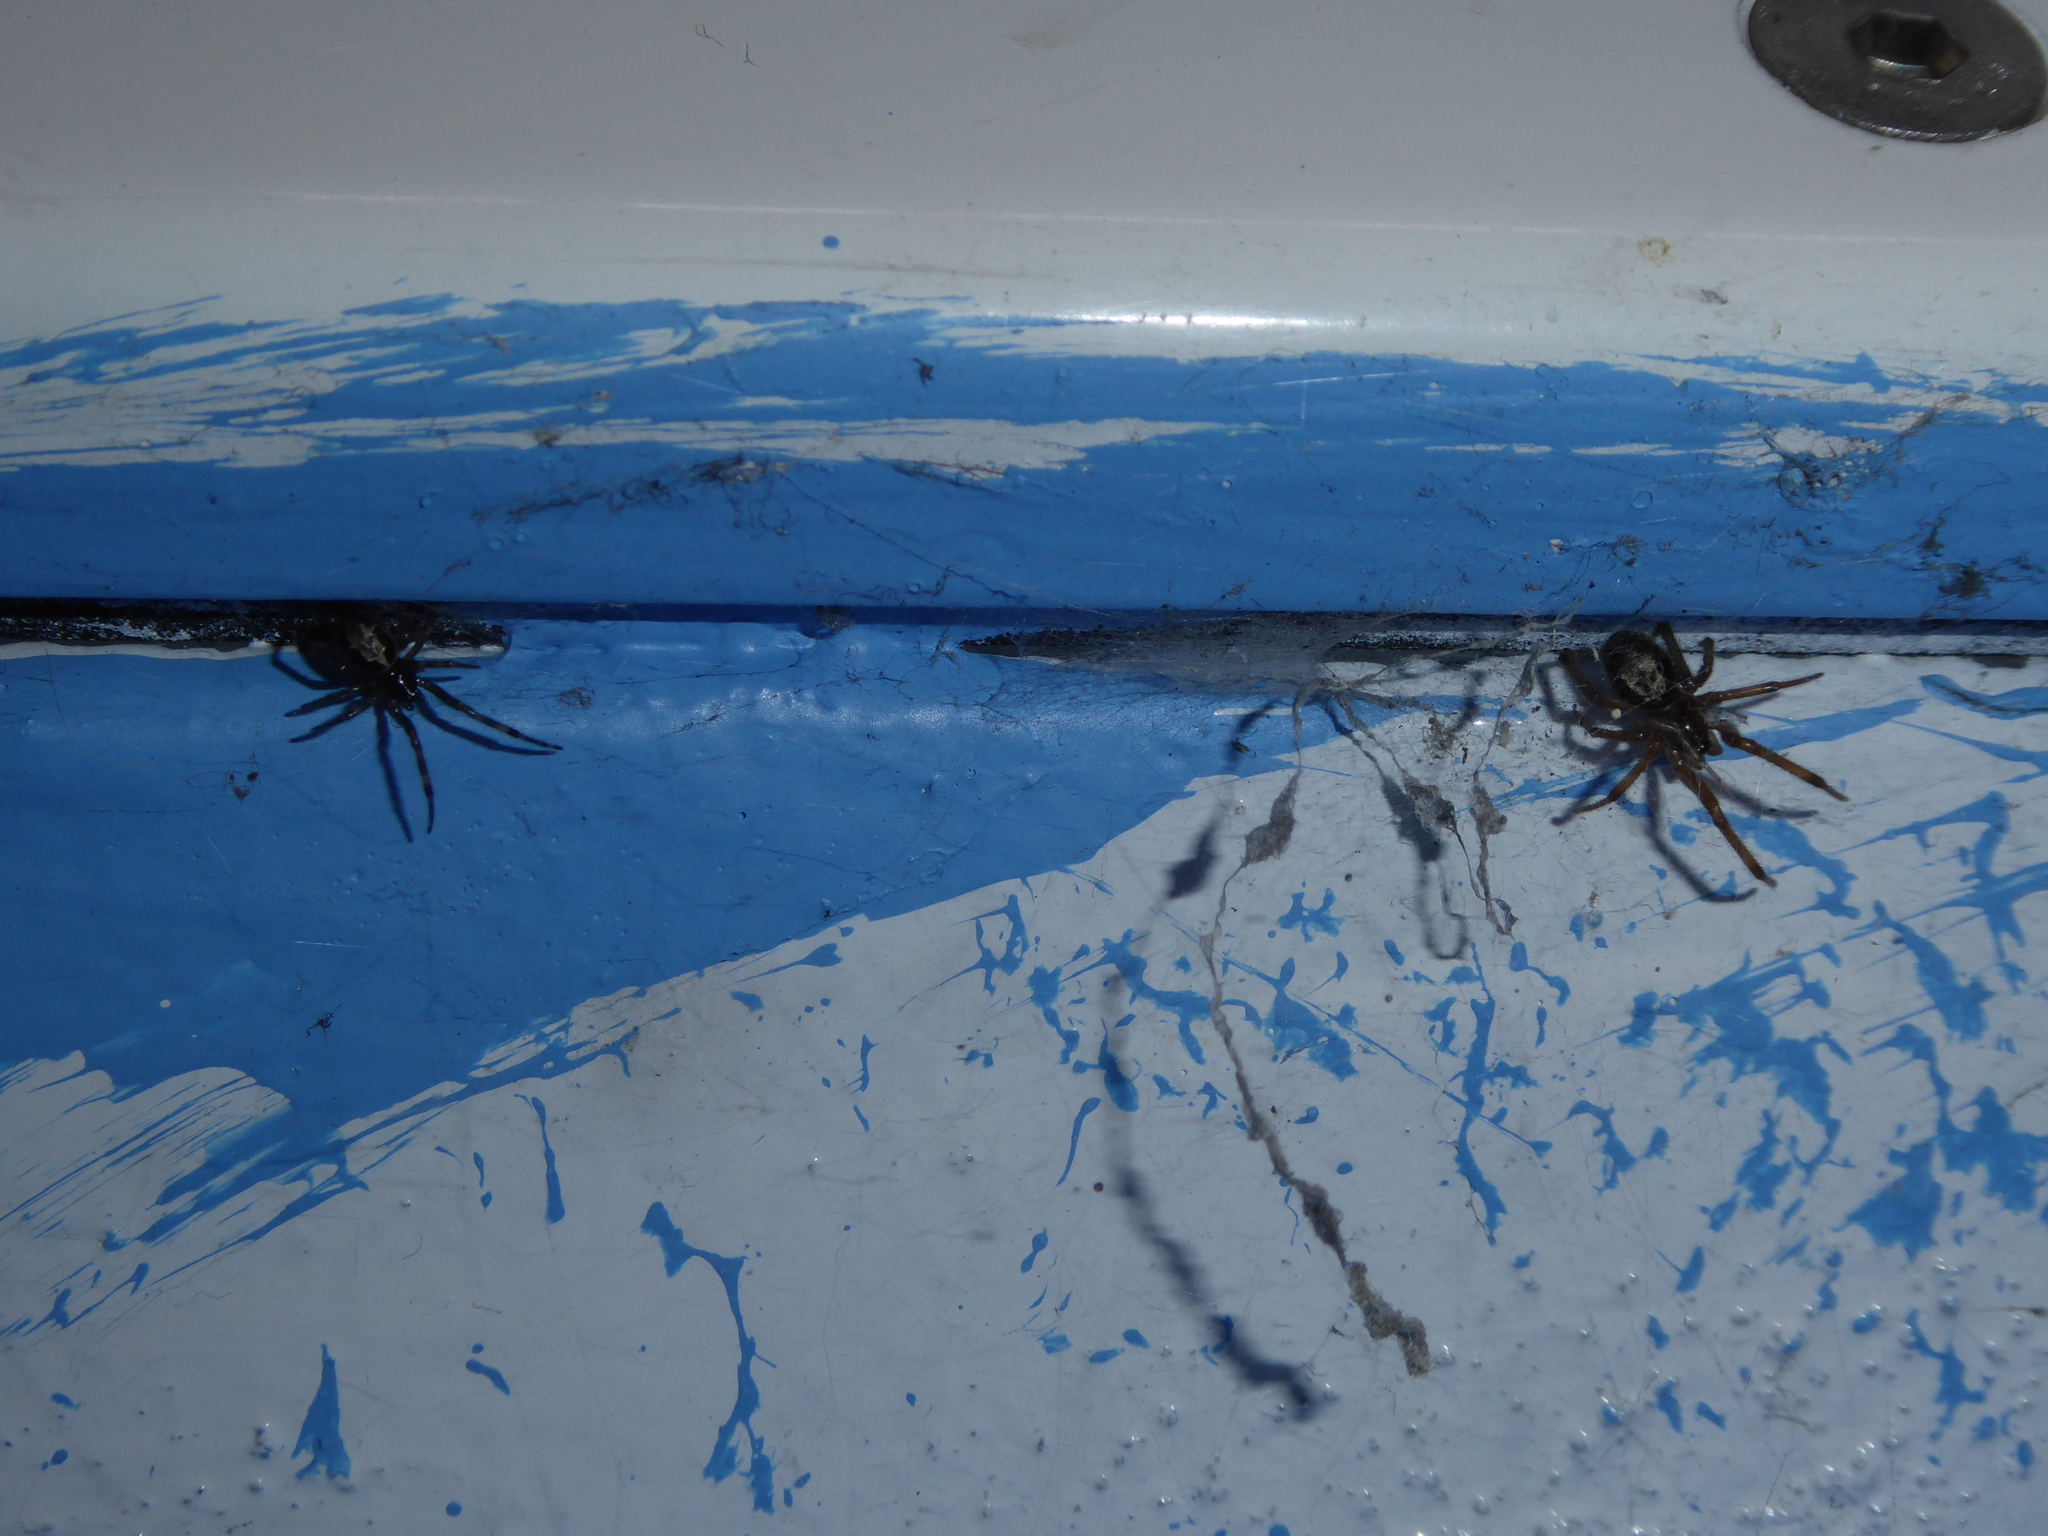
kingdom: Animalia
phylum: Arthropoda
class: Arachnida
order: Araneae
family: Theridiidae
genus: Steatoda
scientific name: Steatoda nobilis
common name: Cobweb weaver
